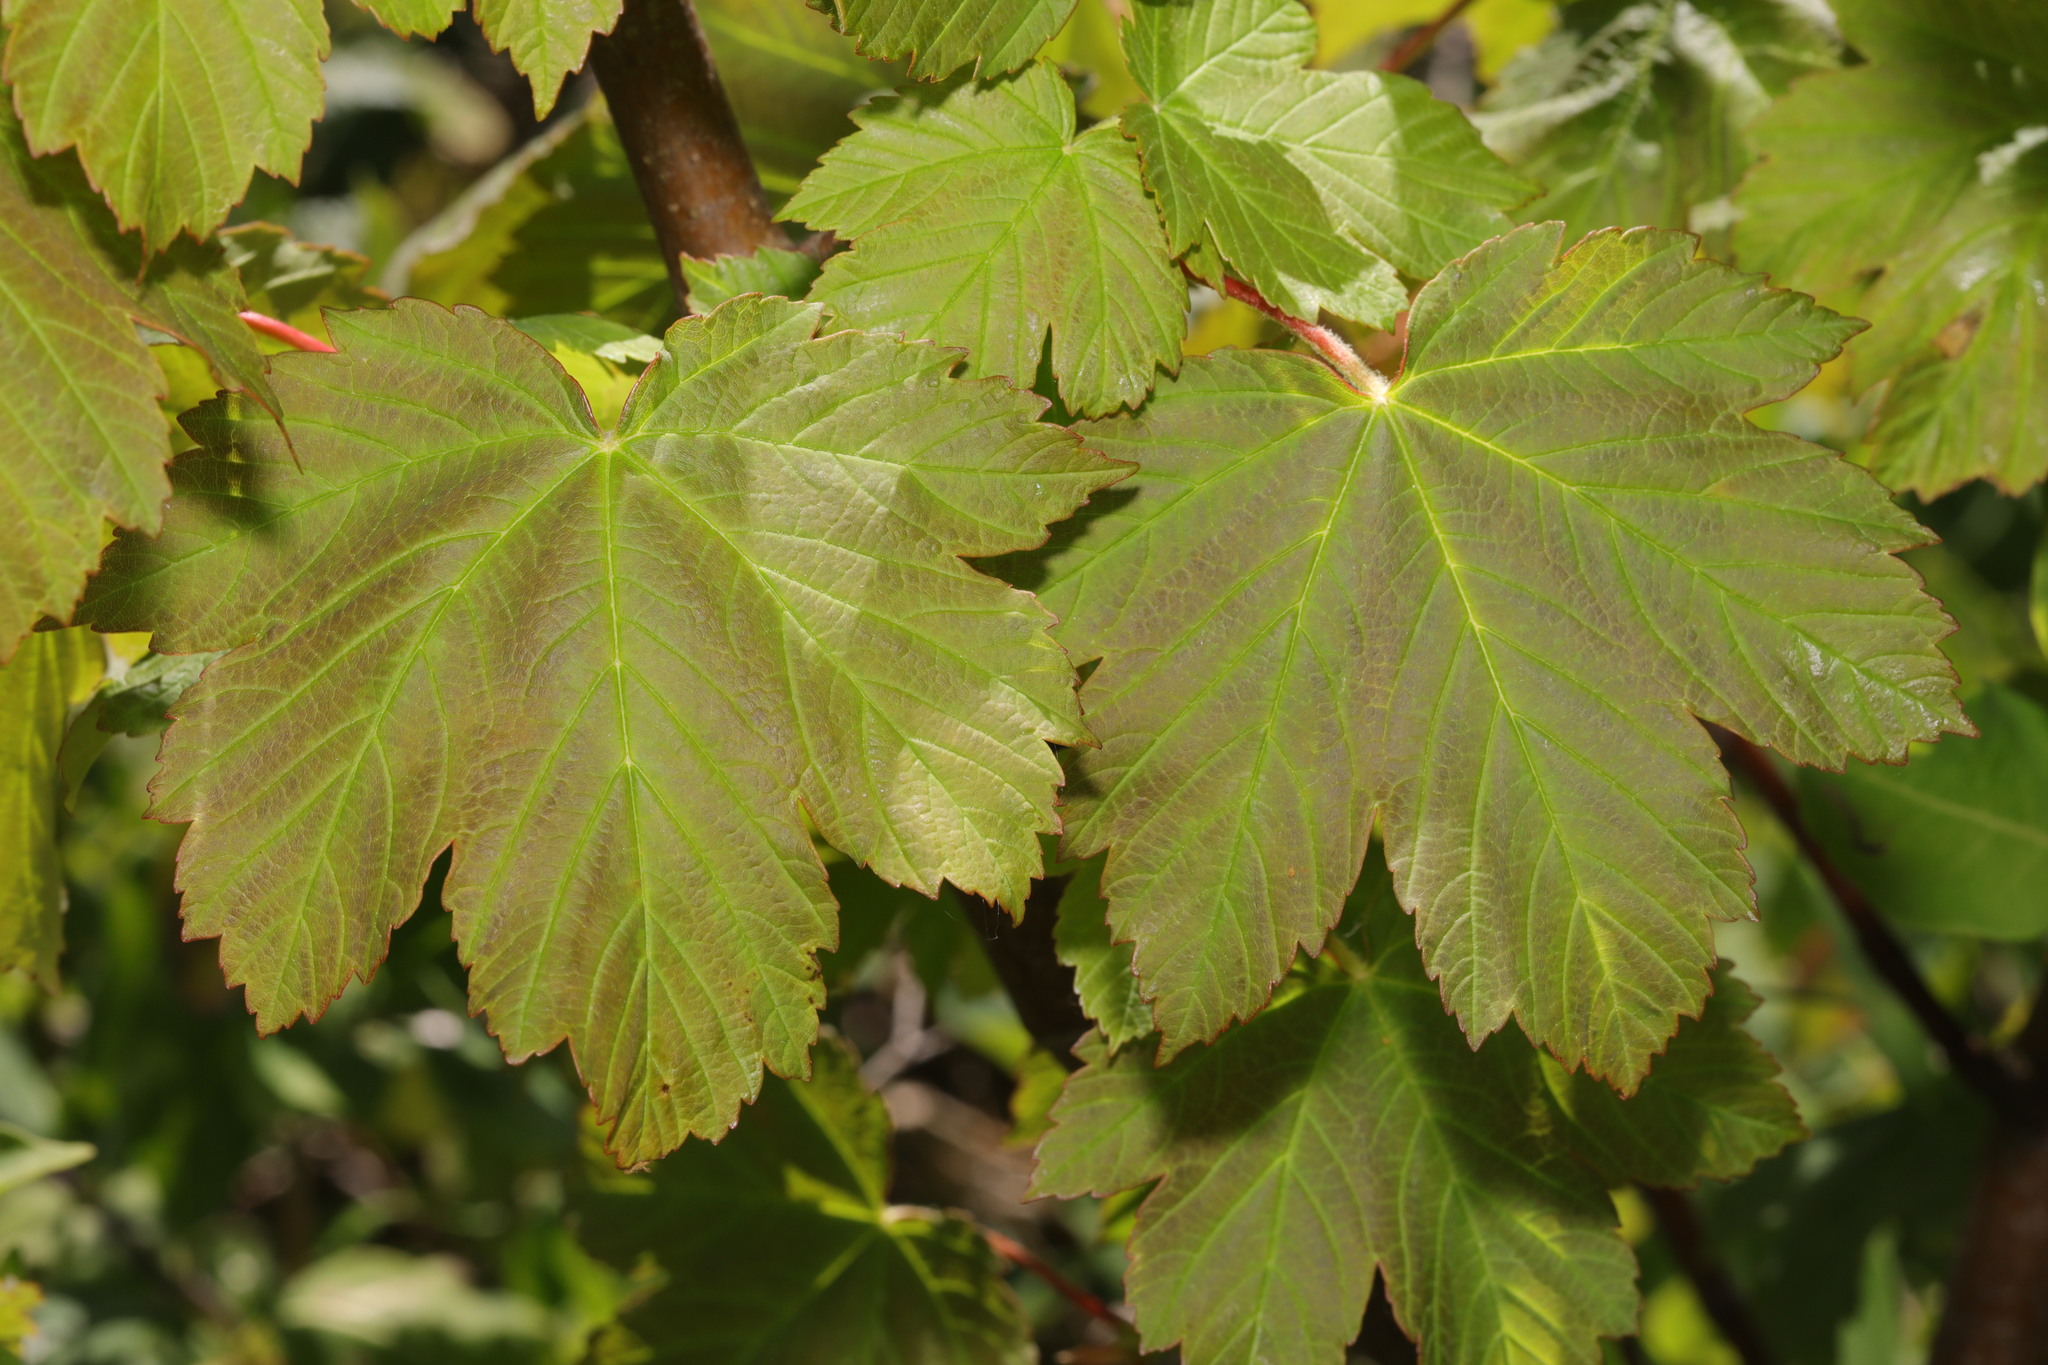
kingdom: Plantae
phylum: Tracheophyta
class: Magnoliopsida
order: Sapindales
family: Sapindaceae
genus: Acer
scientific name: Acer pseudoplatanus
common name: Sycamore
